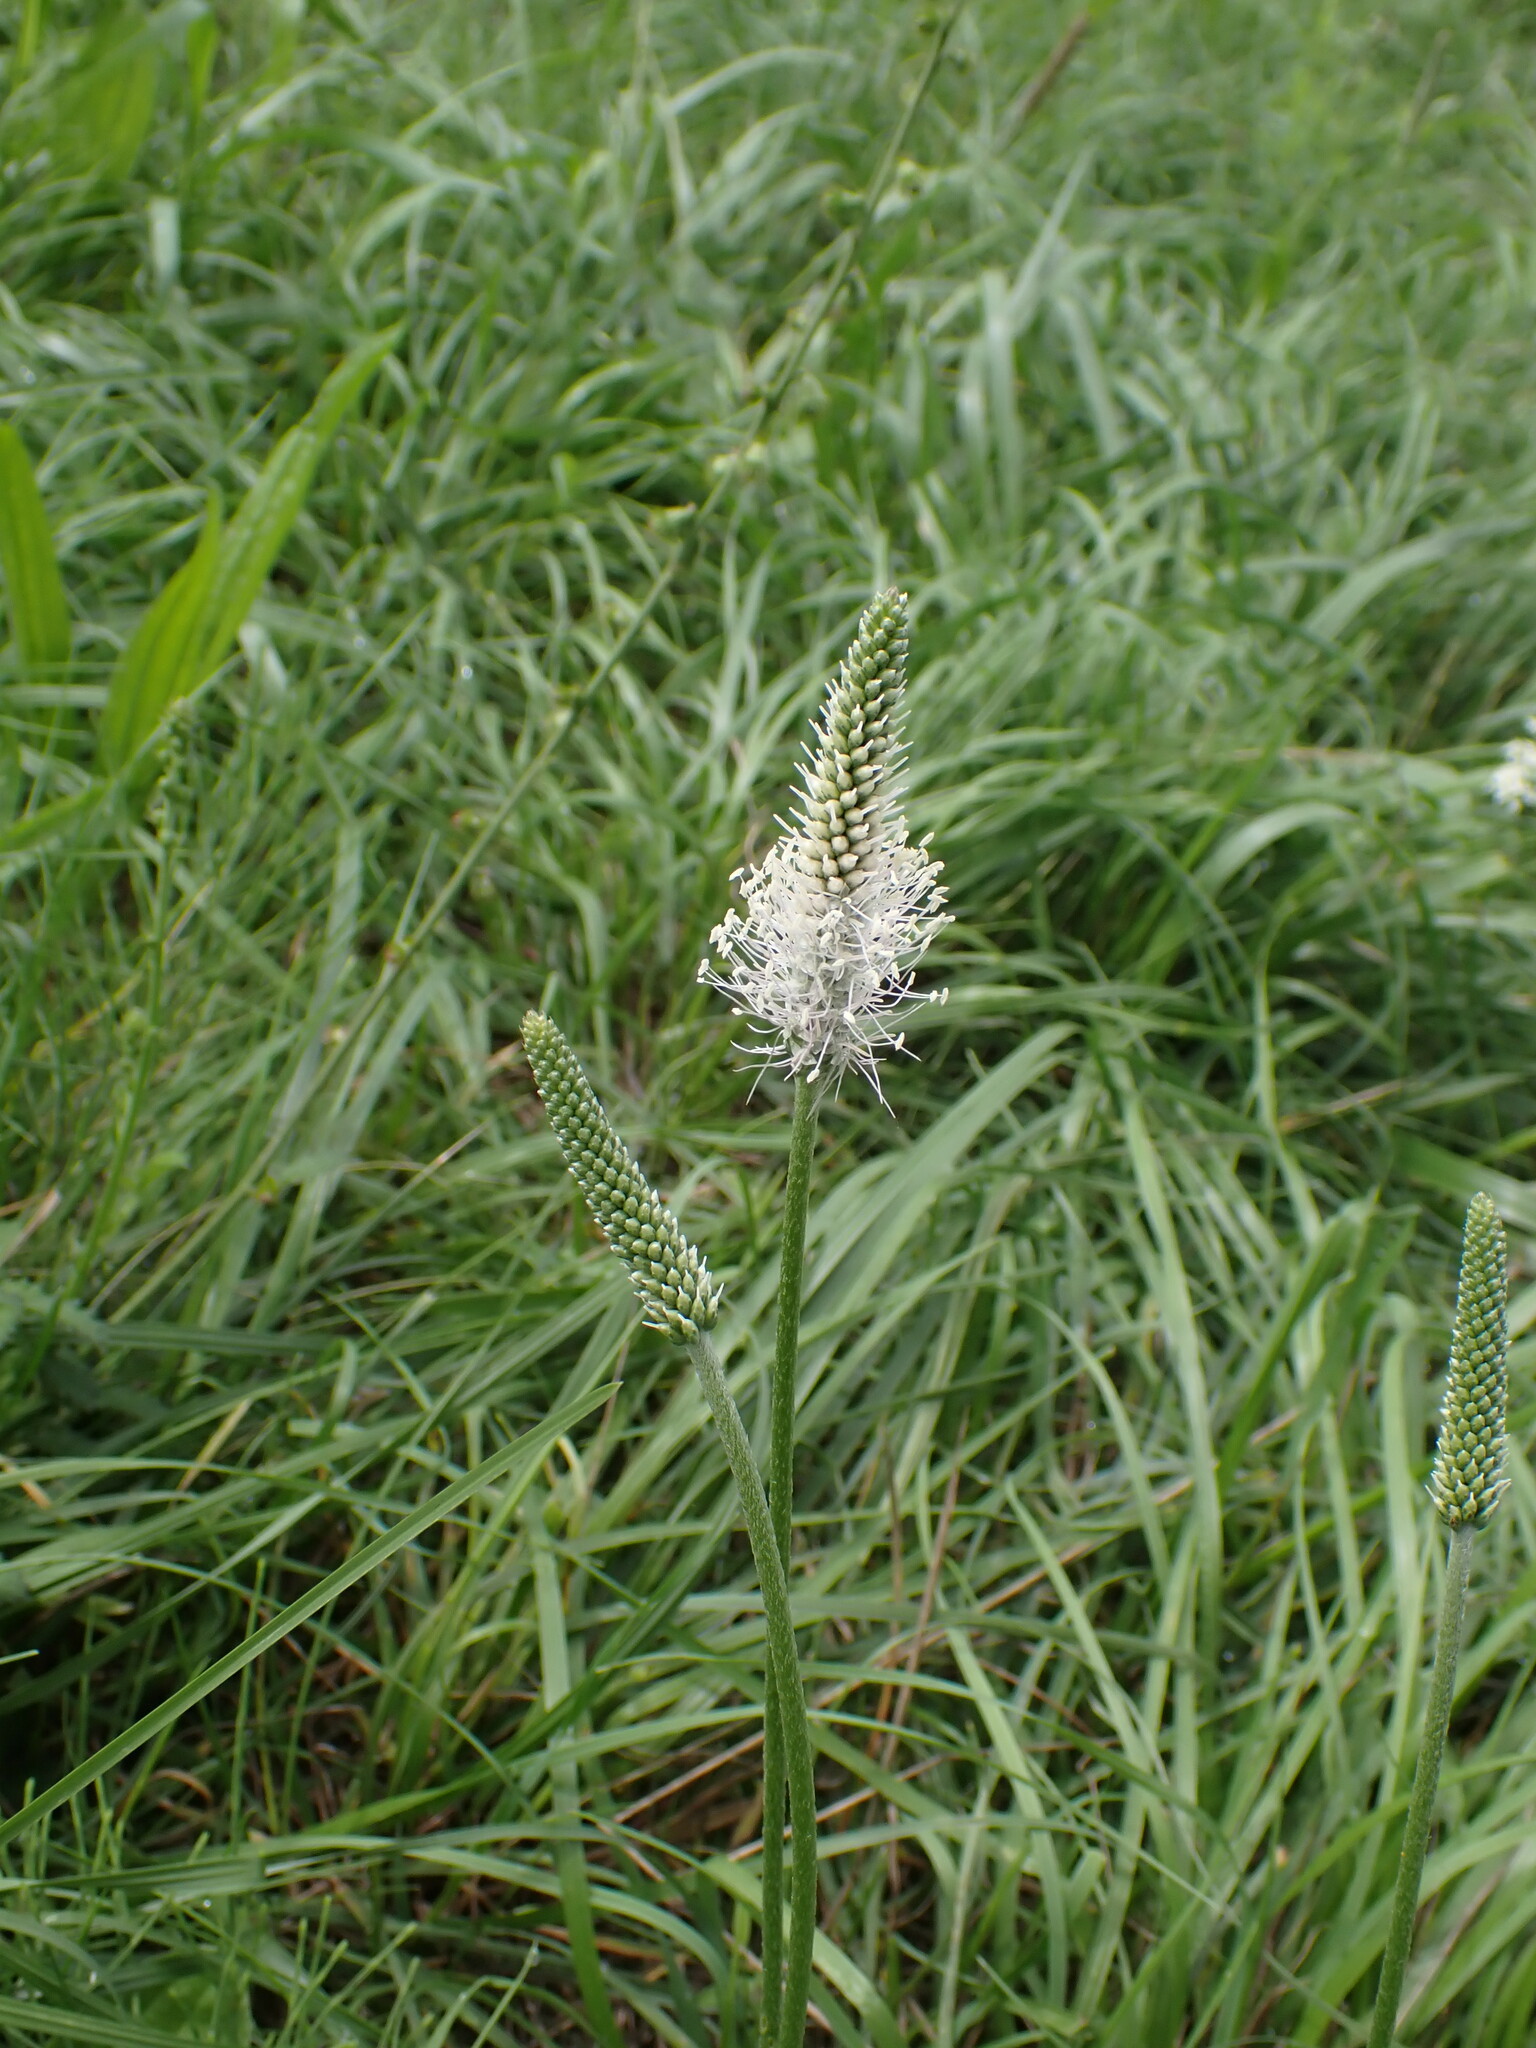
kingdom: Plantae
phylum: Tracheophyta
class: Magnoliopsida
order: Lamiales
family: Plantaginaceae
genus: Plantago
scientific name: Plantago media
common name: Hoary plantain
